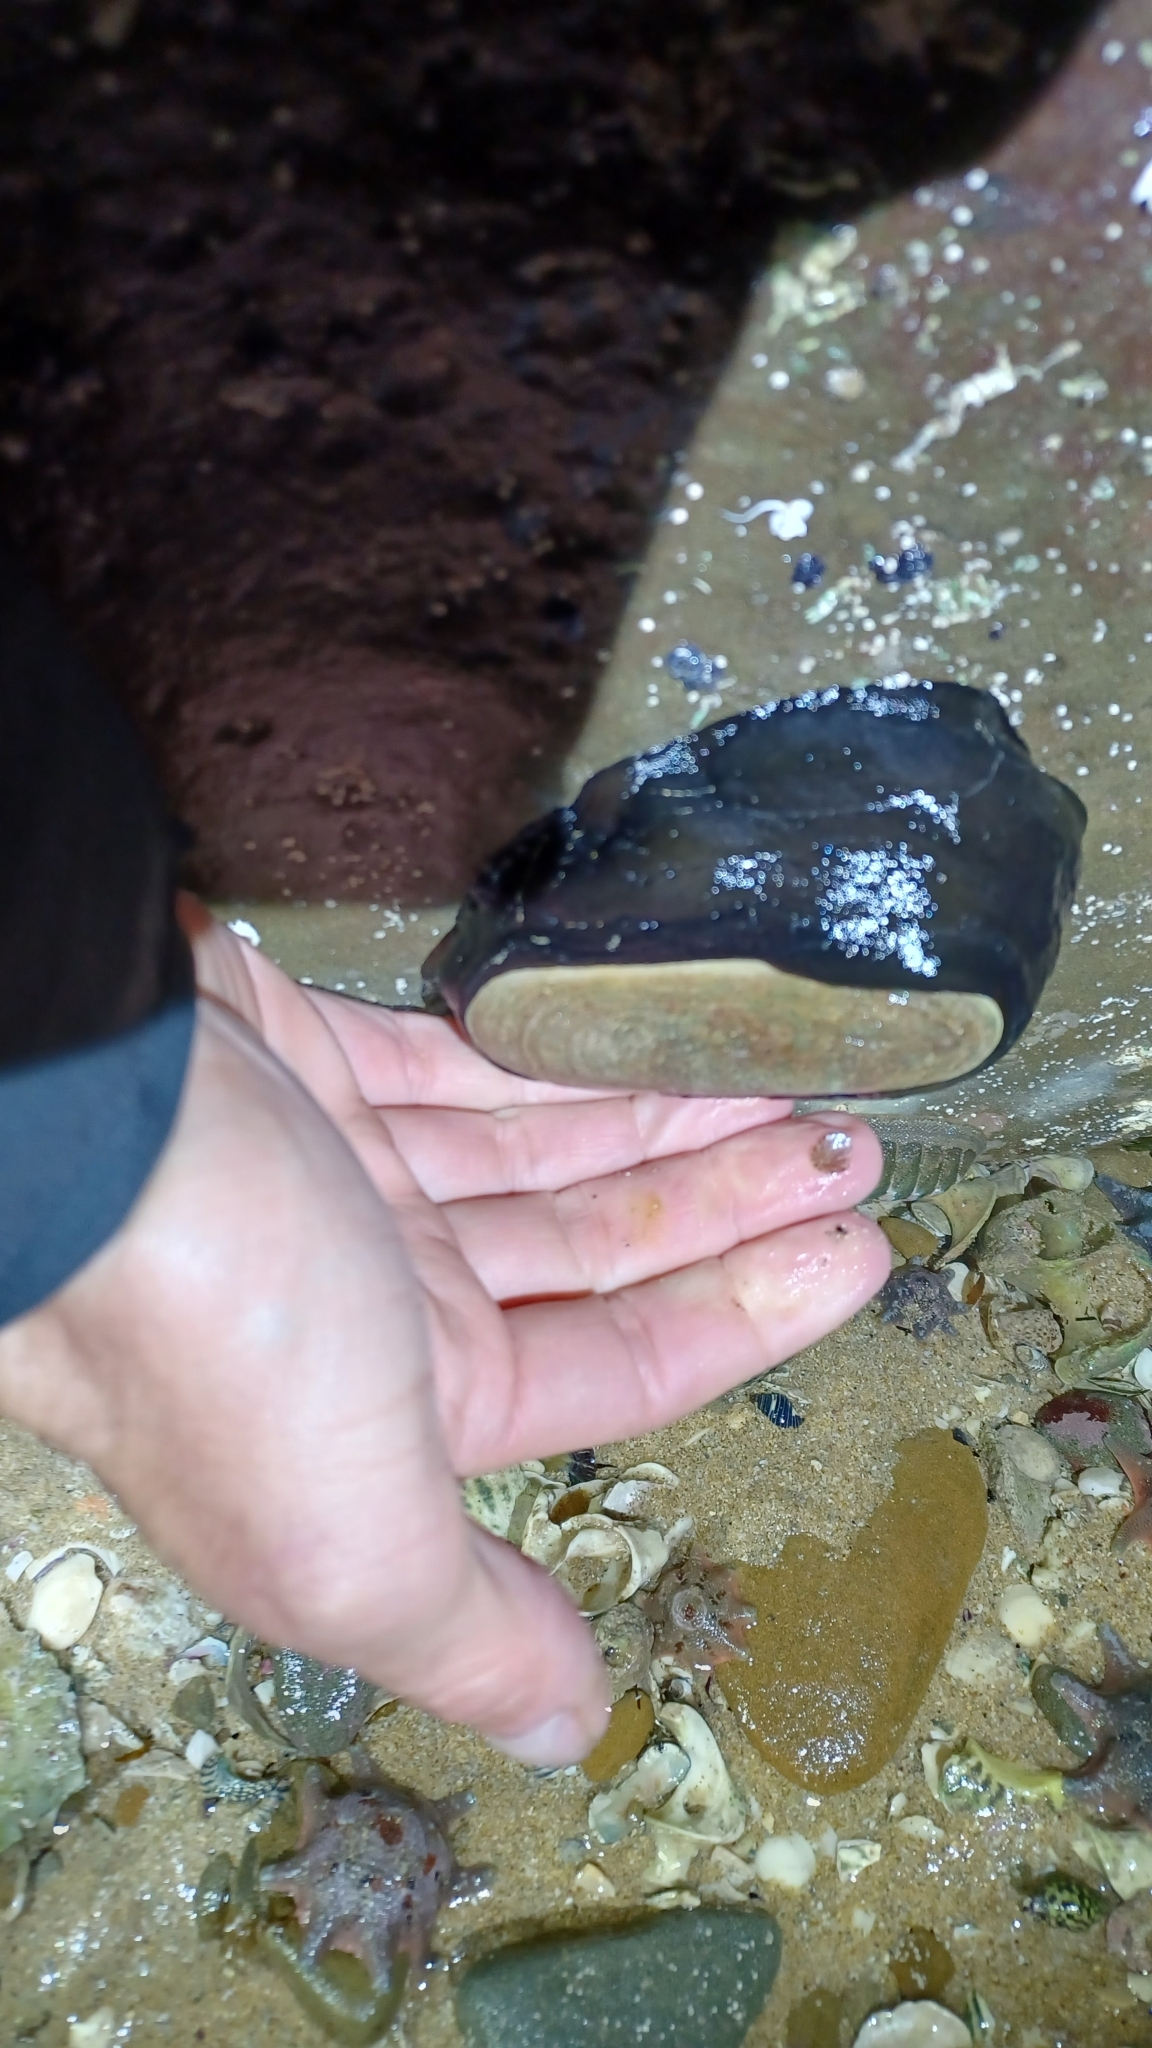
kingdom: Animalia
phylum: Mollusca
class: Gastropoda
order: Lepetellida
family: Fissurellidae
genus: Scutus
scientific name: Scutus antipodes
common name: Duckbill shell
